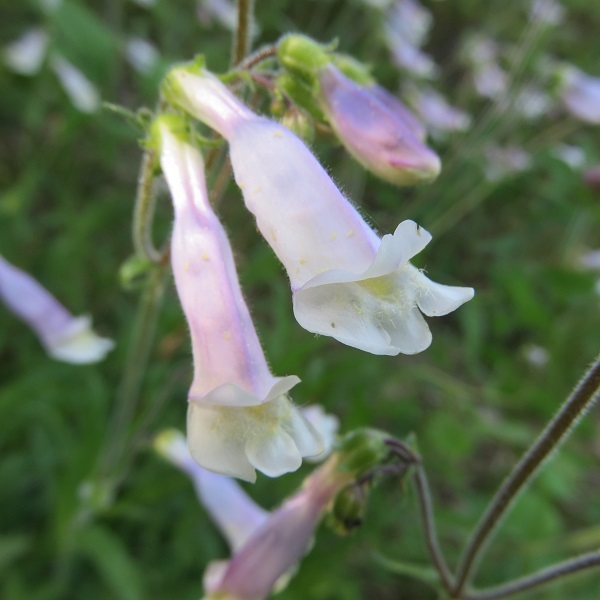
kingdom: Plantae
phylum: Tracheophyta
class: Magnoliopsida
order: Lamiales
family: Plantaginaceae
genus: Penstemon
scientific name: Penstemon hirsutus
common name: Hairy beardtongue
